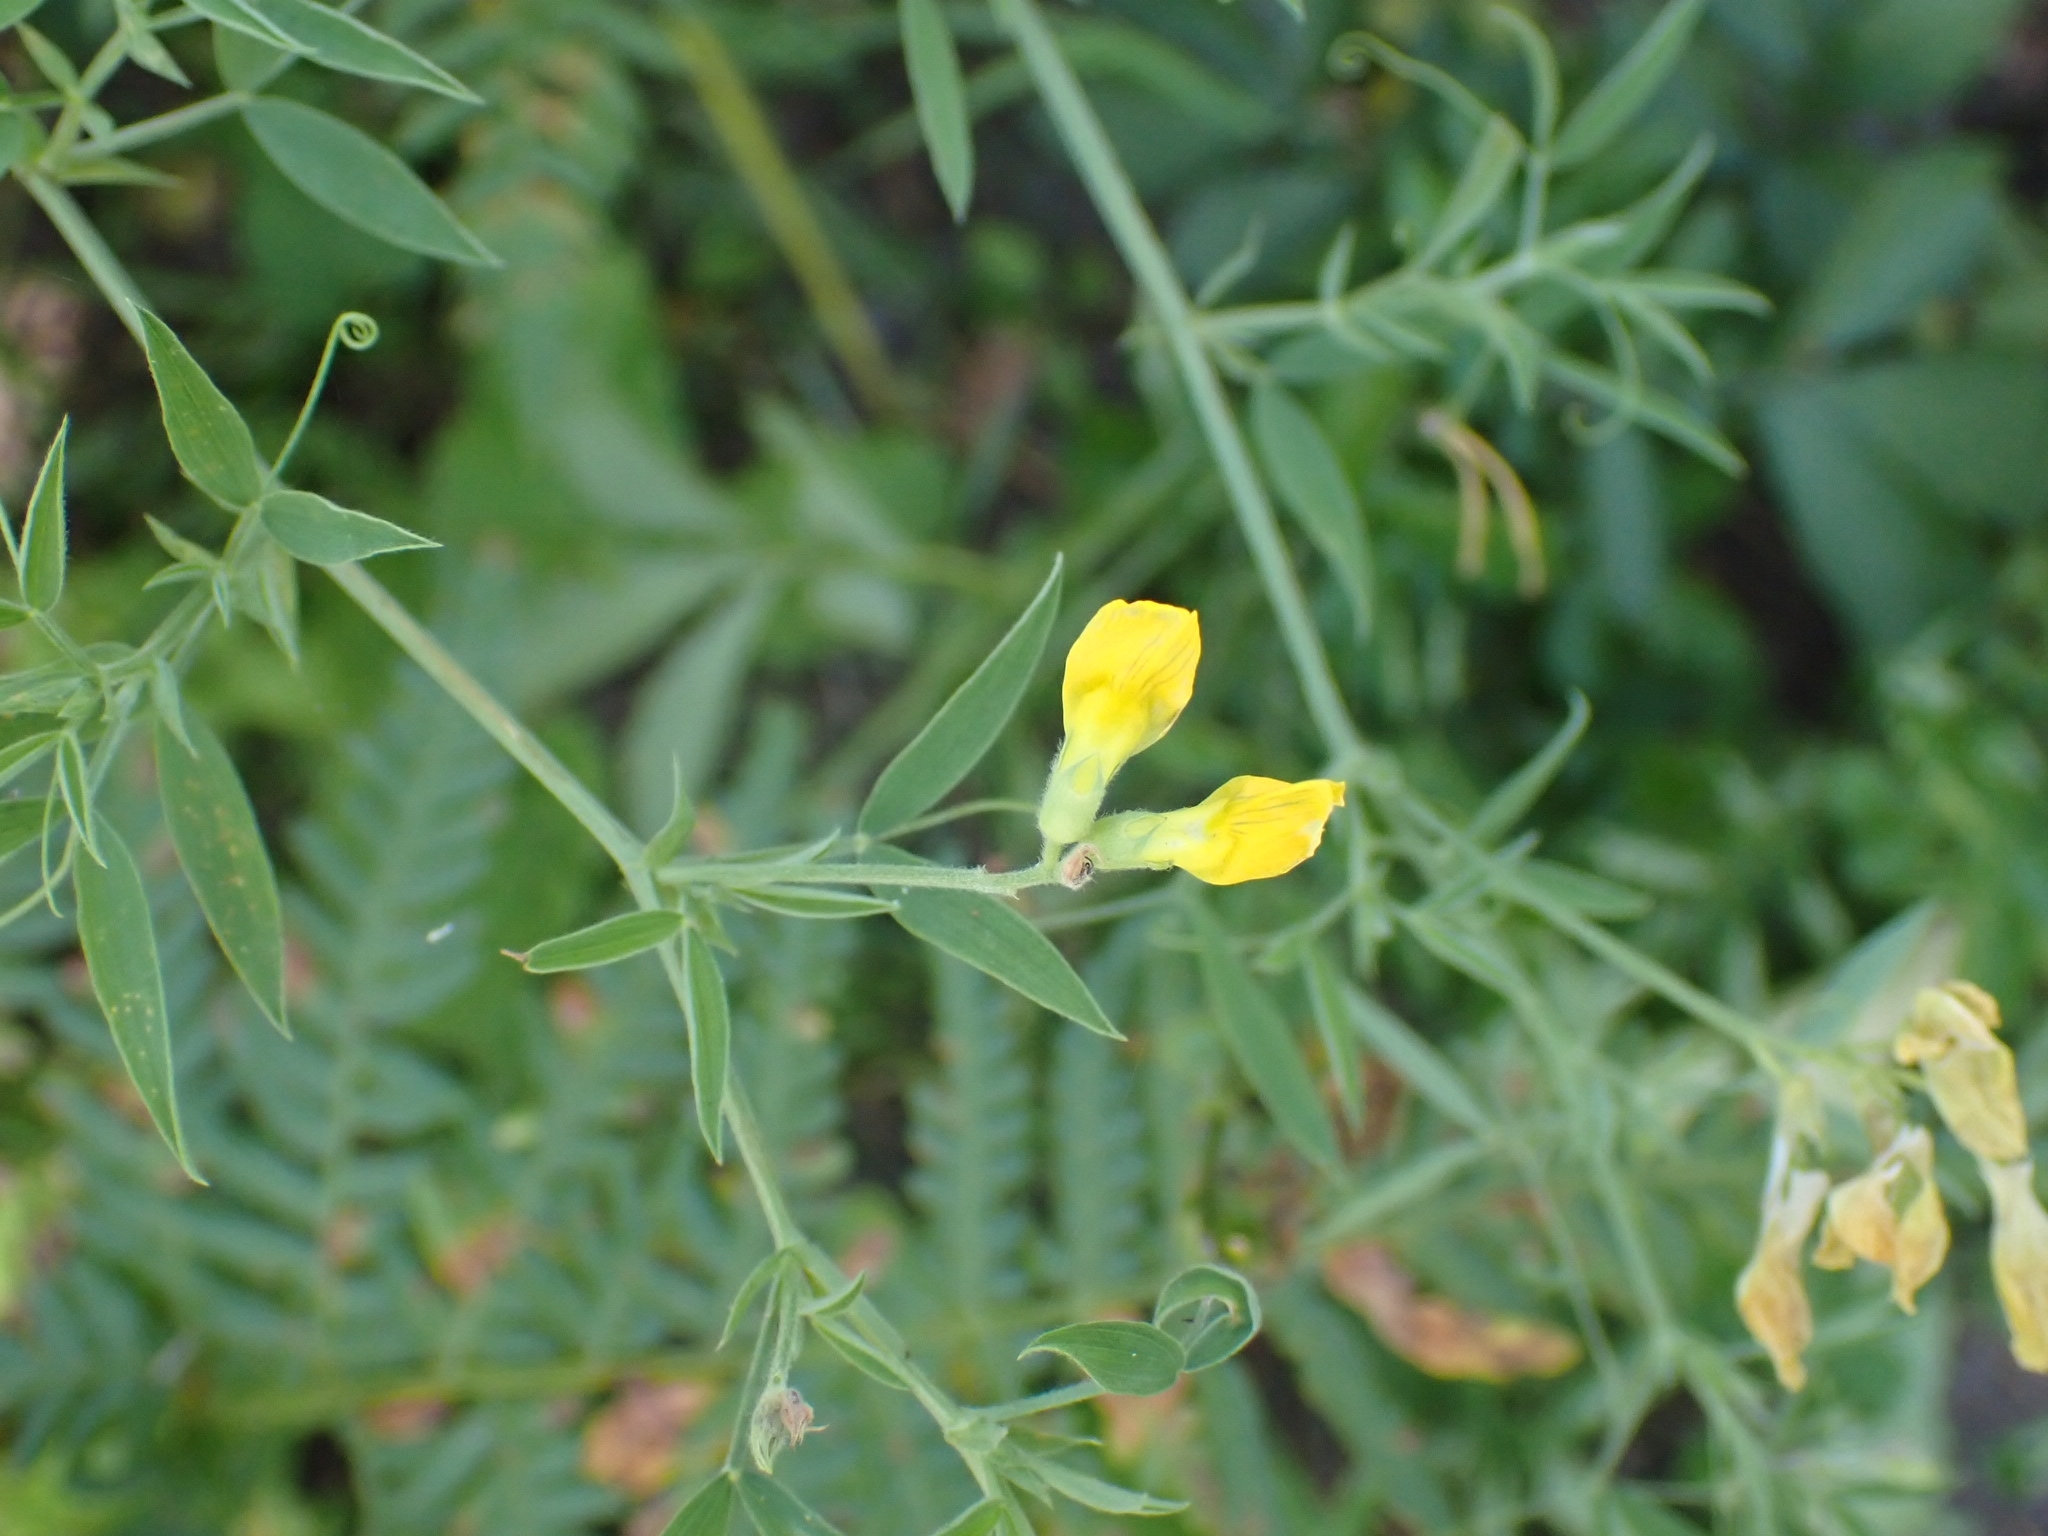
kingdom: Plantae
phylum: Tracheophyta
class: Magnoliopsida
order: Fabales
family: Fabaceae
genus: Lathyrus
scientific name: Lathyrus pratensis
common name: Meadow vetchling
